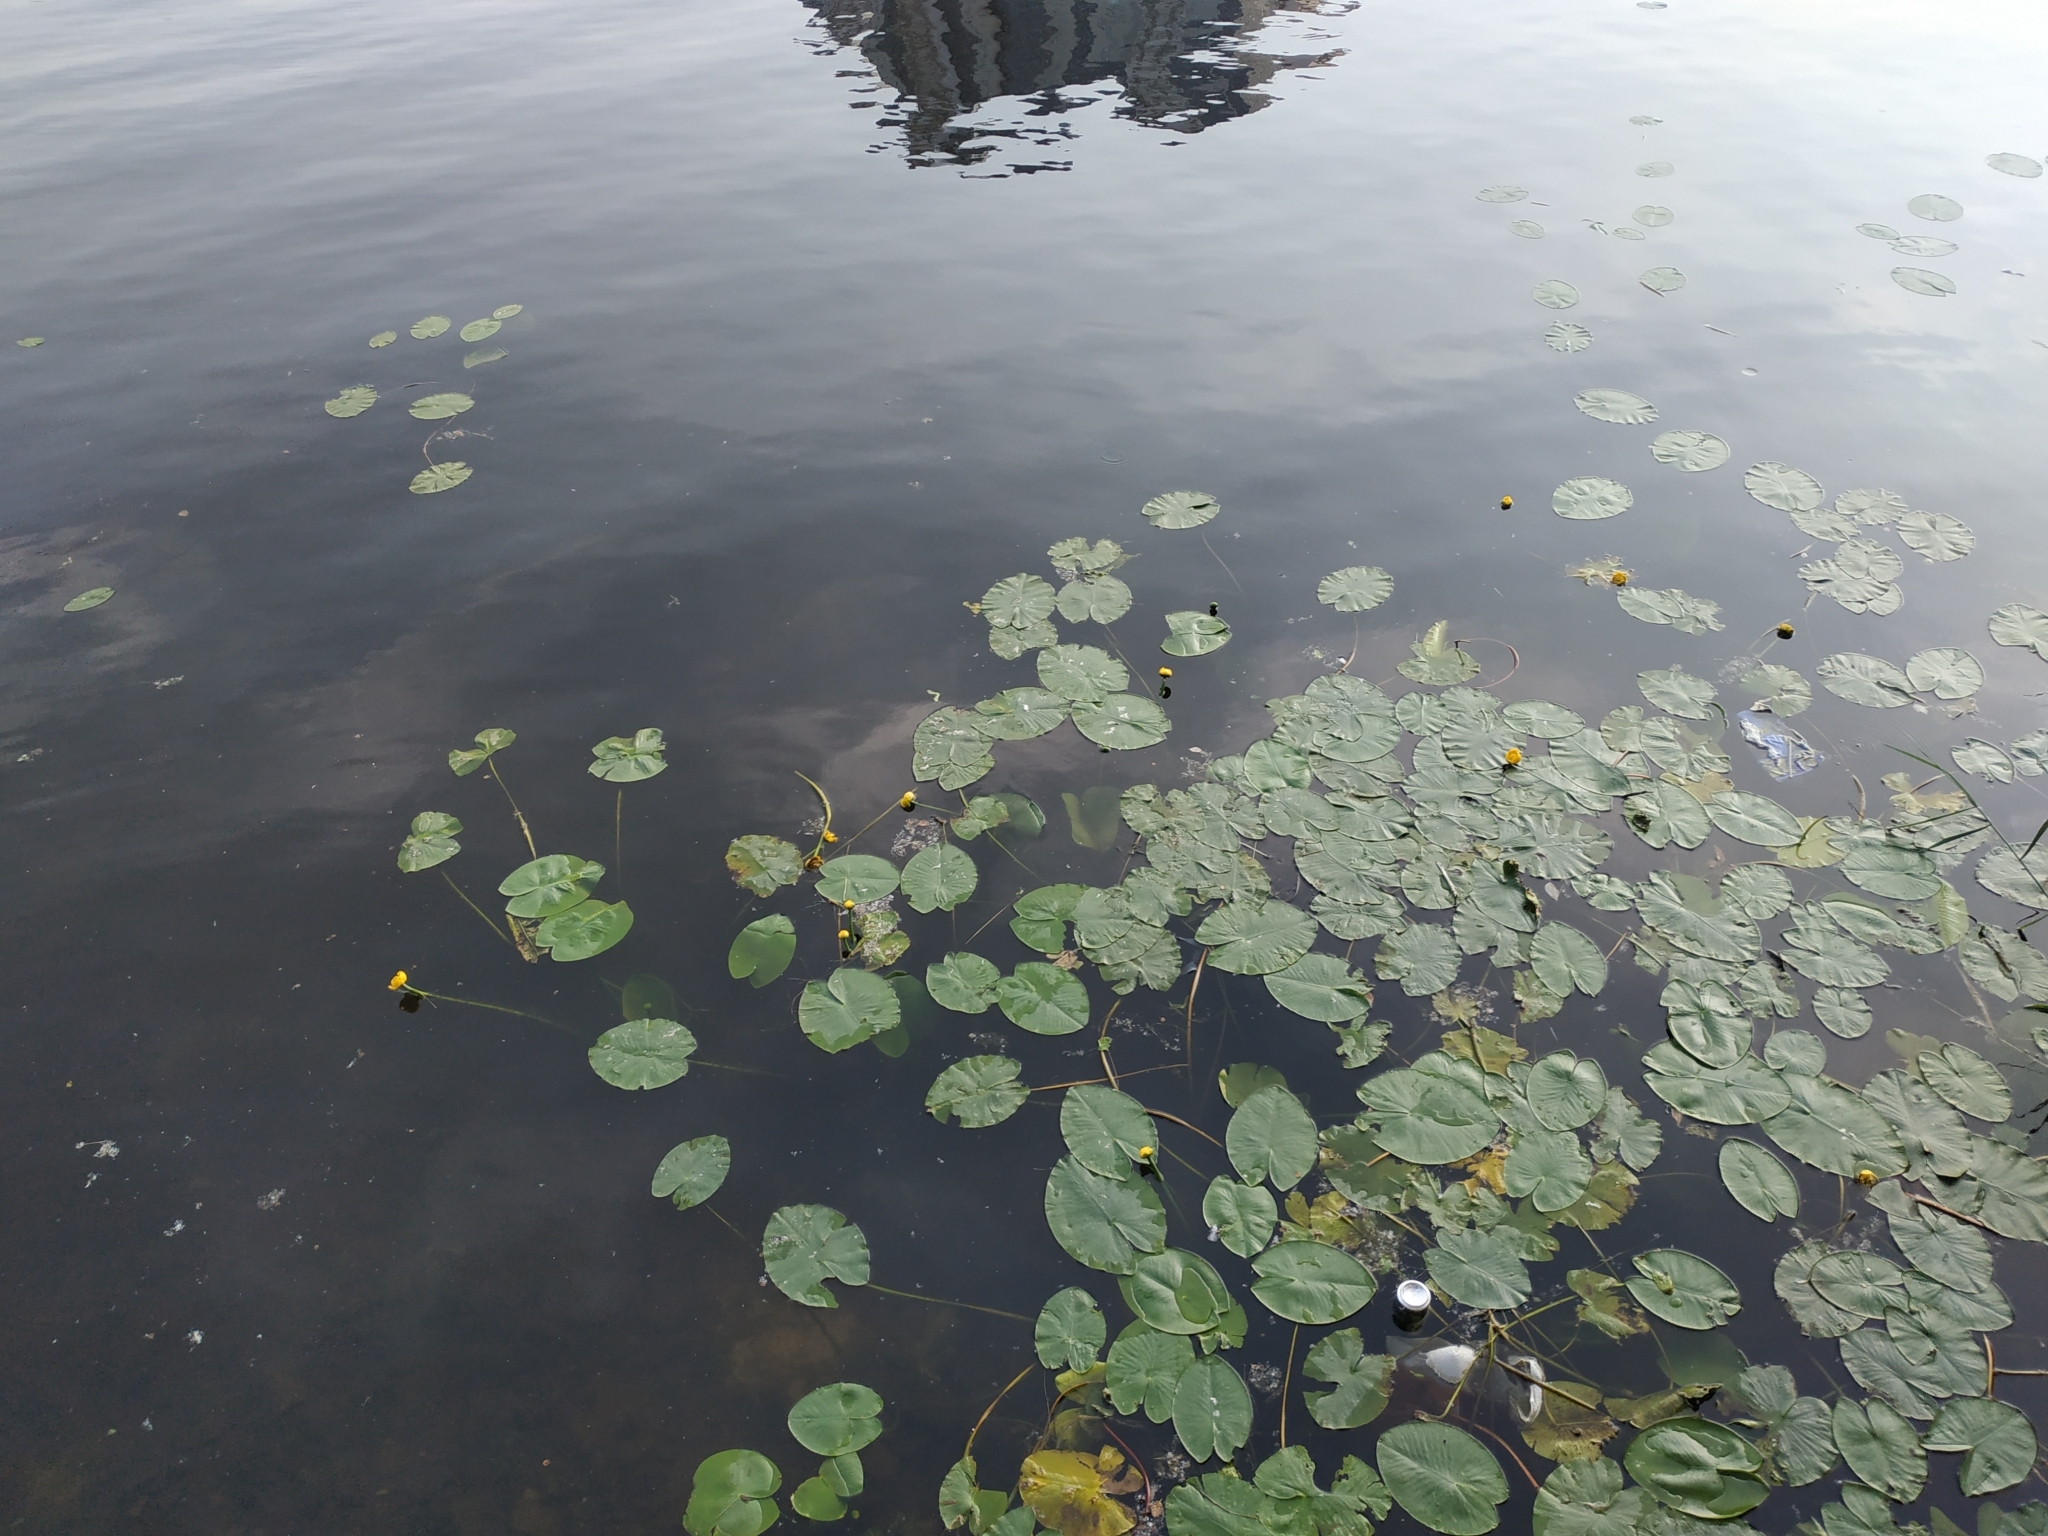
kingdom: Plantae
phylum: Tracheophyta
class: Magnoliopsida
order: Nymphaeales
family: Nymphaeaceae
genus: Nuphar
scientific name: Nuphar lutea
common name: Yellow water-lily
